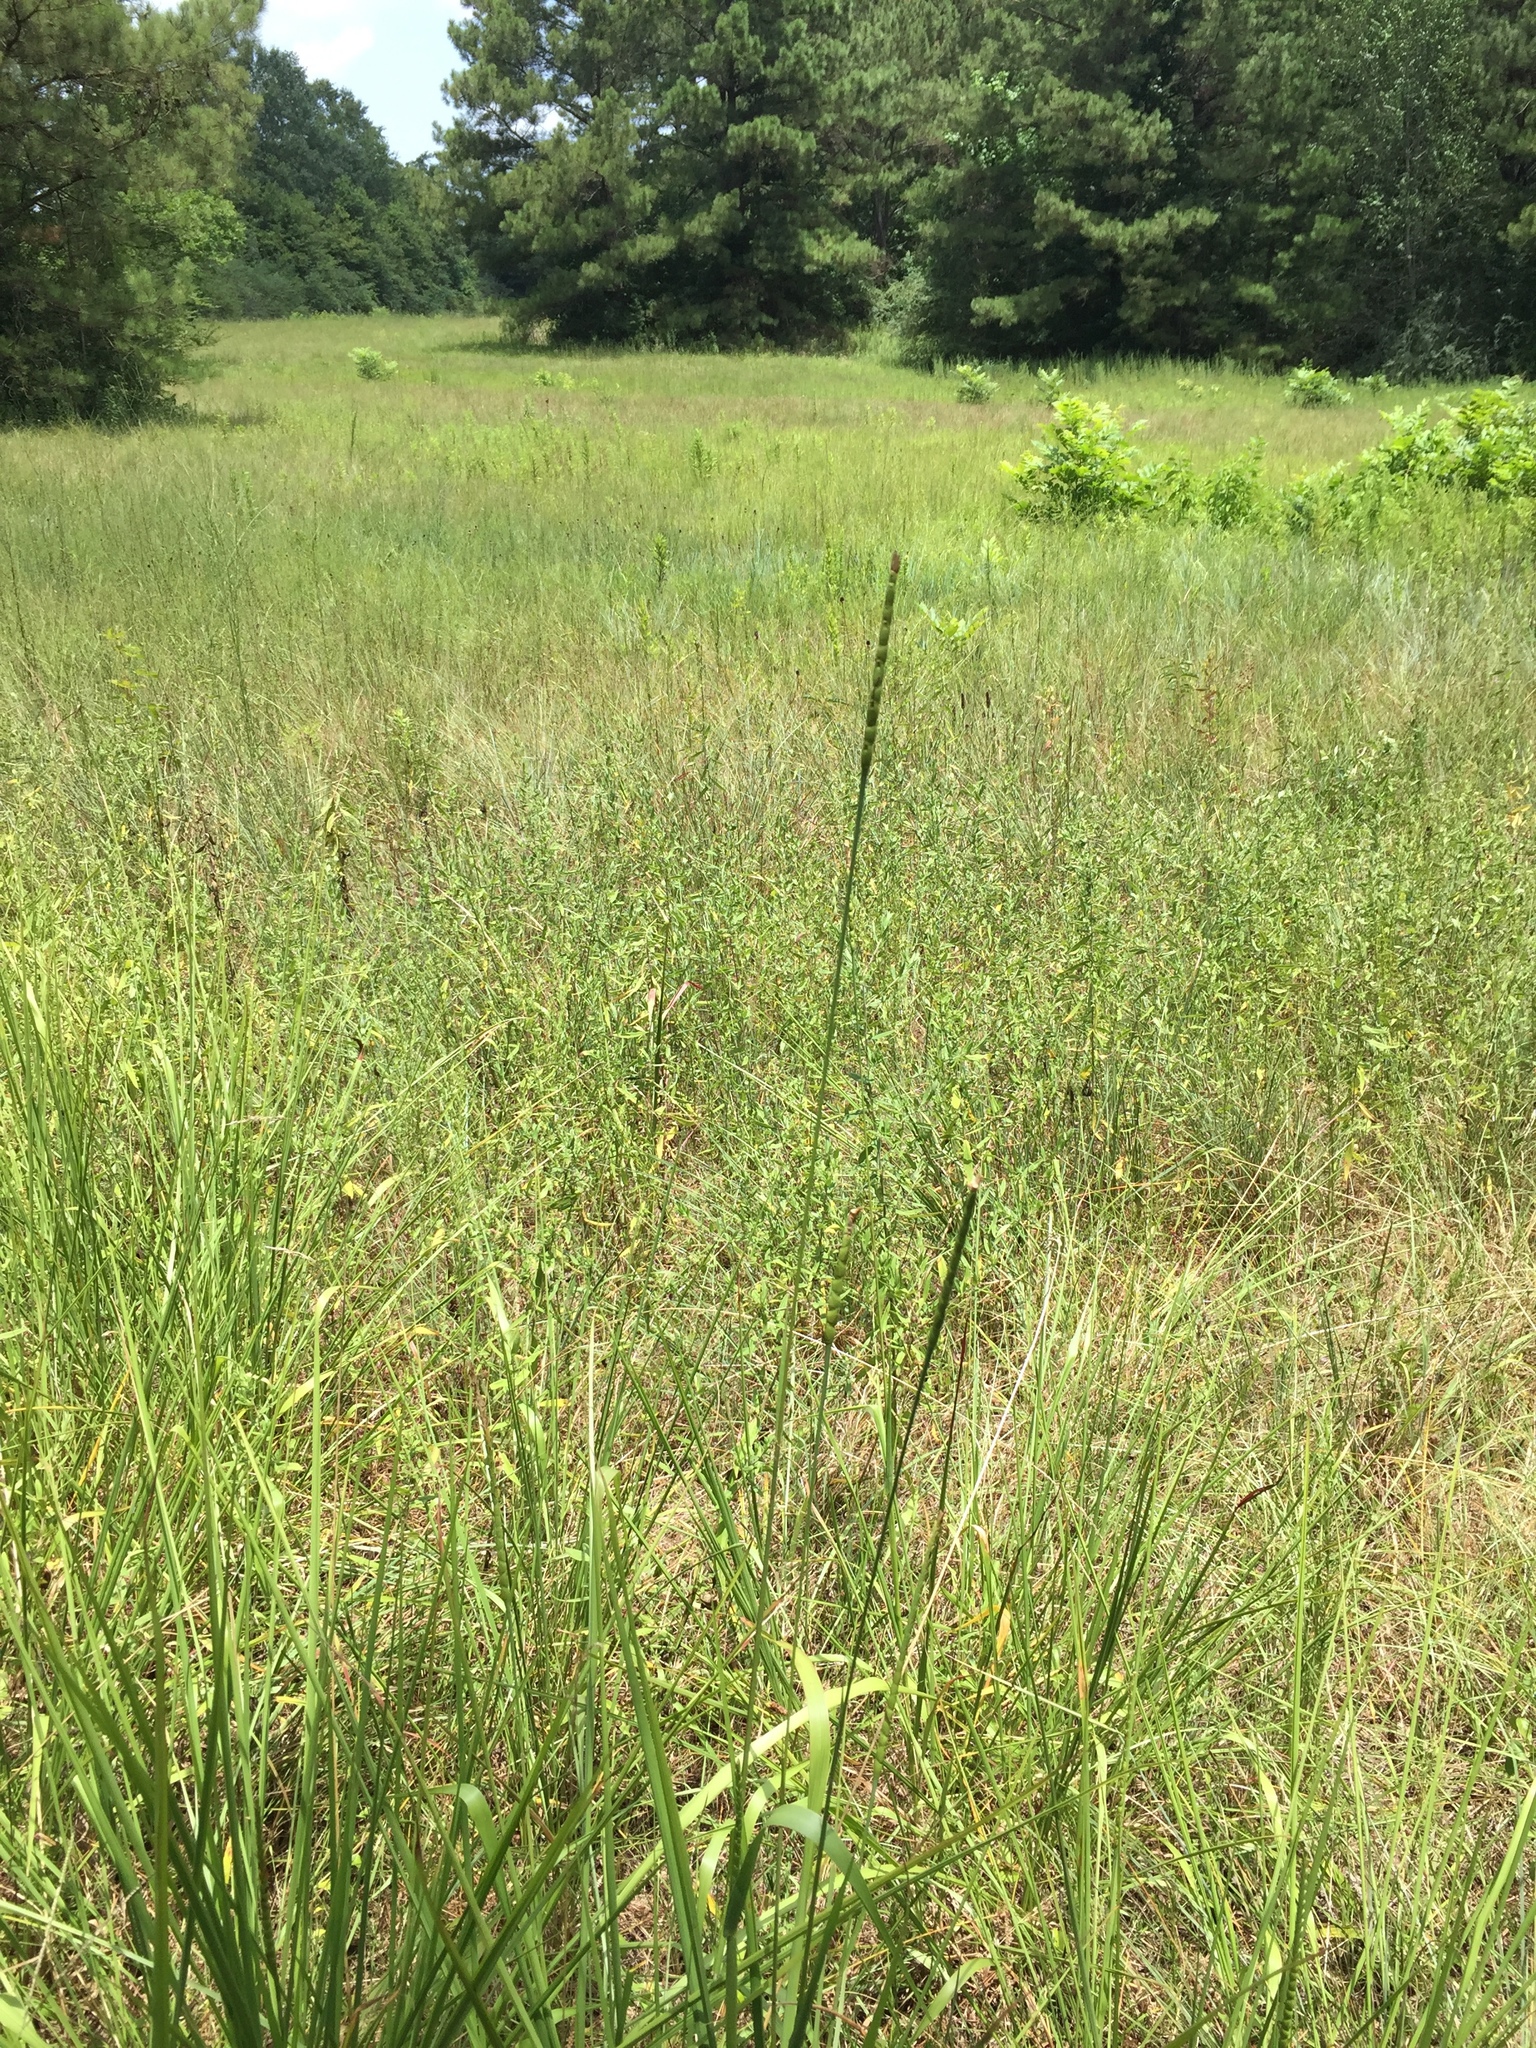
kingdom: Plantae
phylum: Tracheophyta
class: Liliopsida
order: Poales
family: Poaceae
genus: Tripsacum
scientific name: Tripsacum dactyloides
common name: Buffalo-grass
